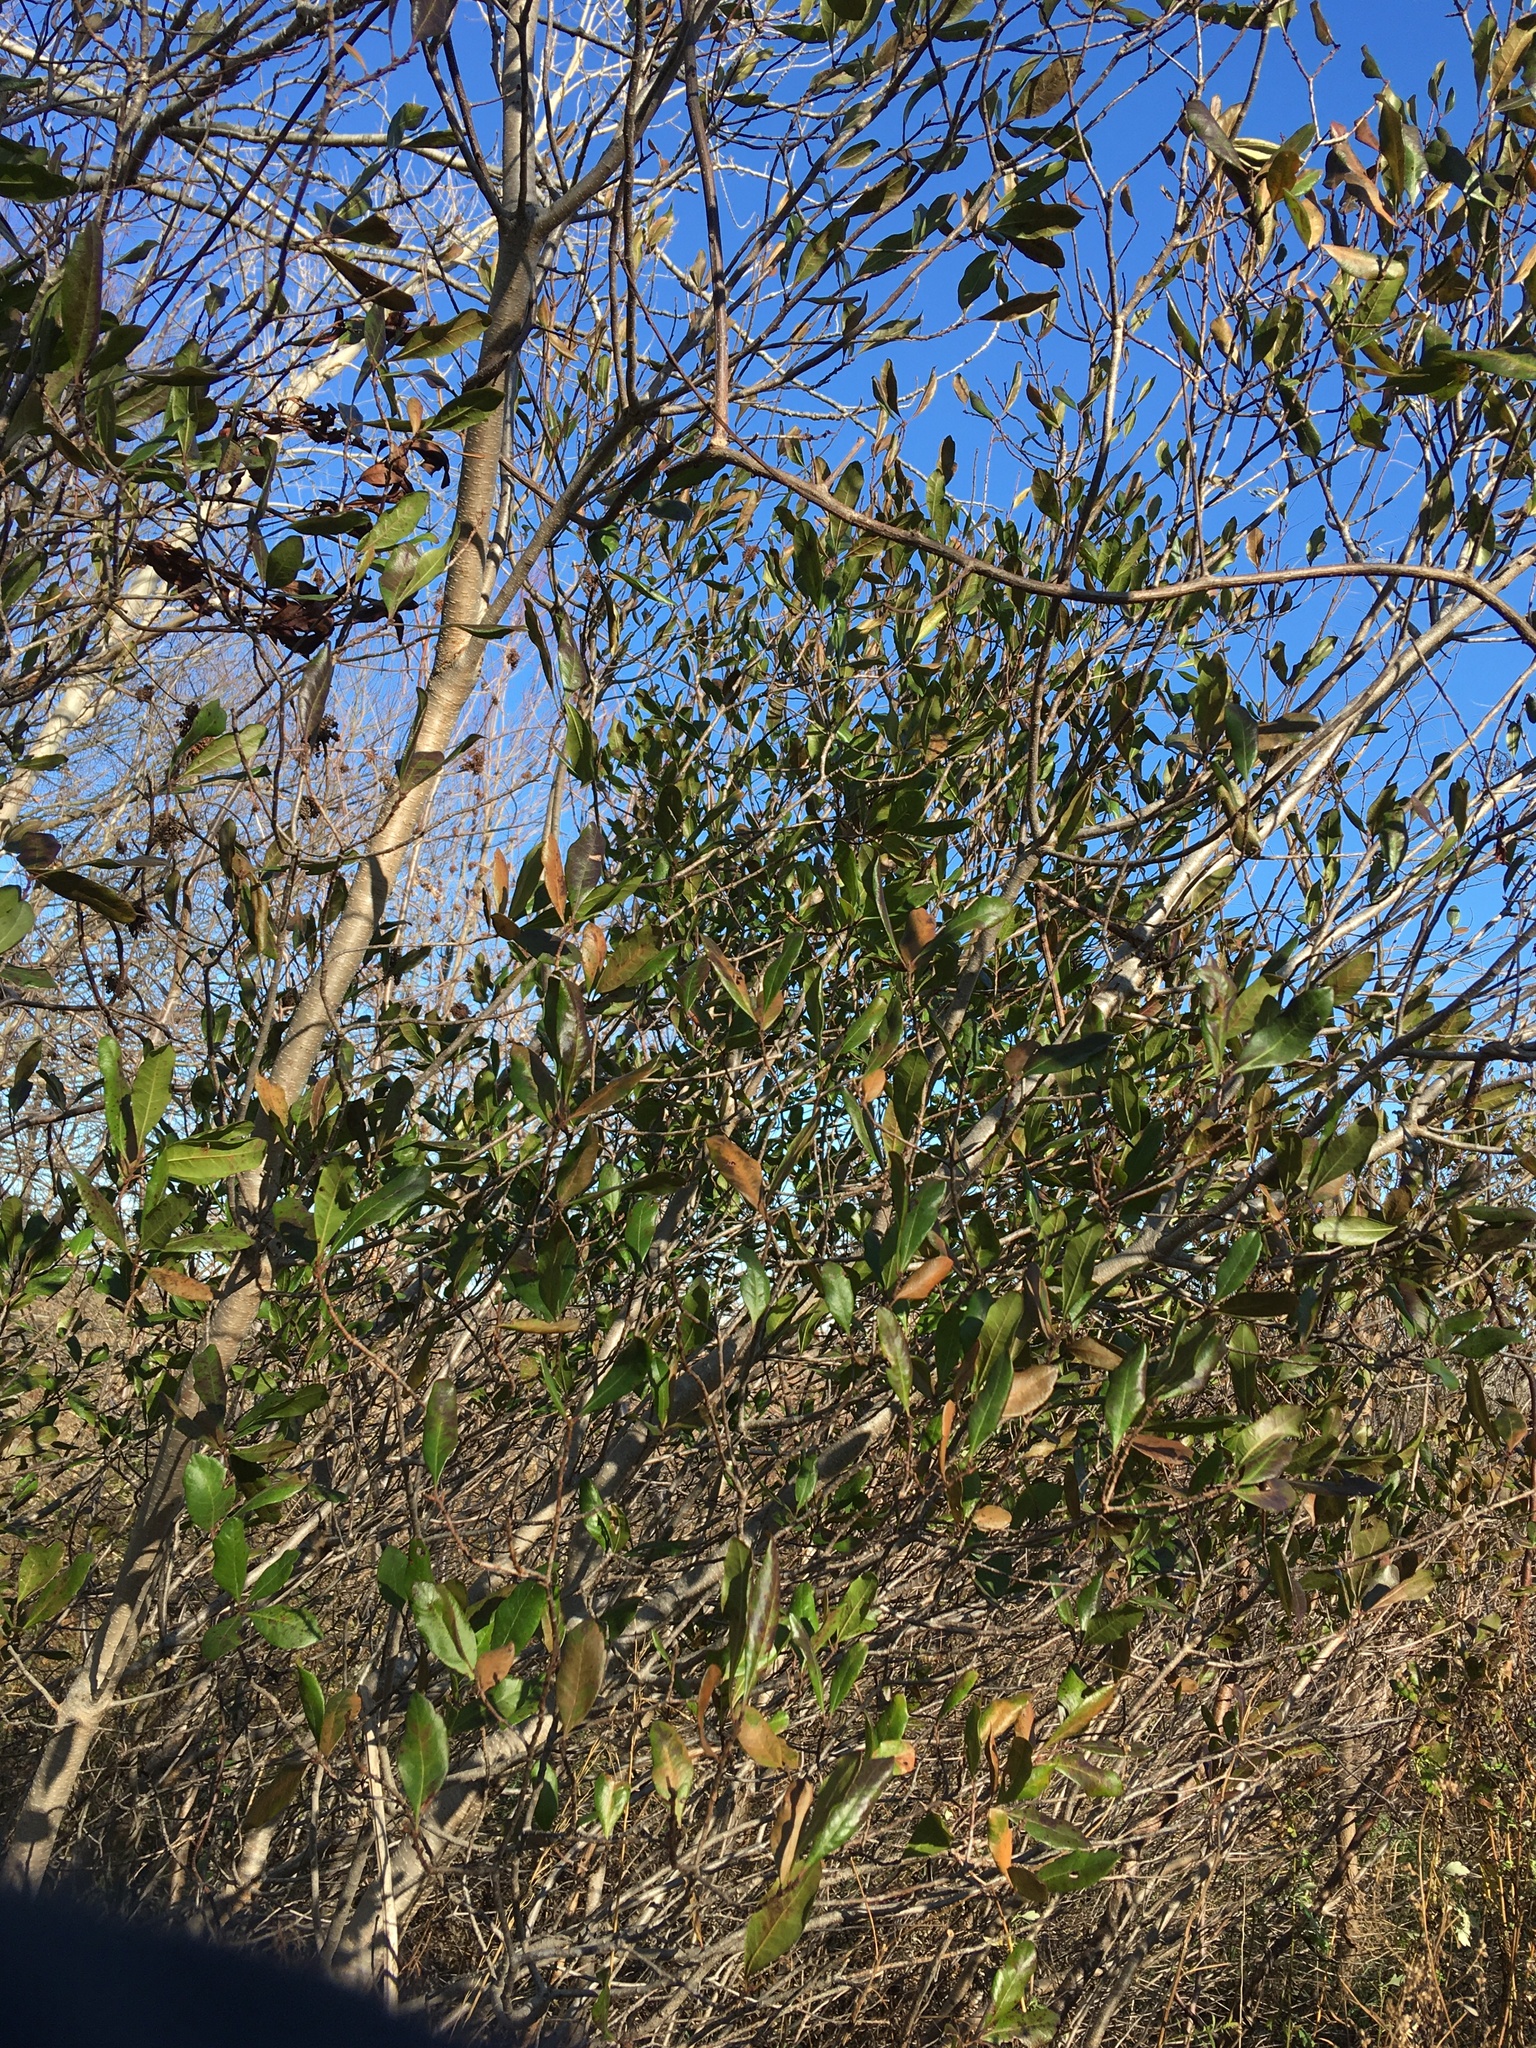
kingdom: Plantae
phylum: Tracheophyta
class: Magnoliopsida
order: Fagales
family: Myricaceae
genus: Morella
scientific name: Morella pensylvanica
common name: Northern bayberry
